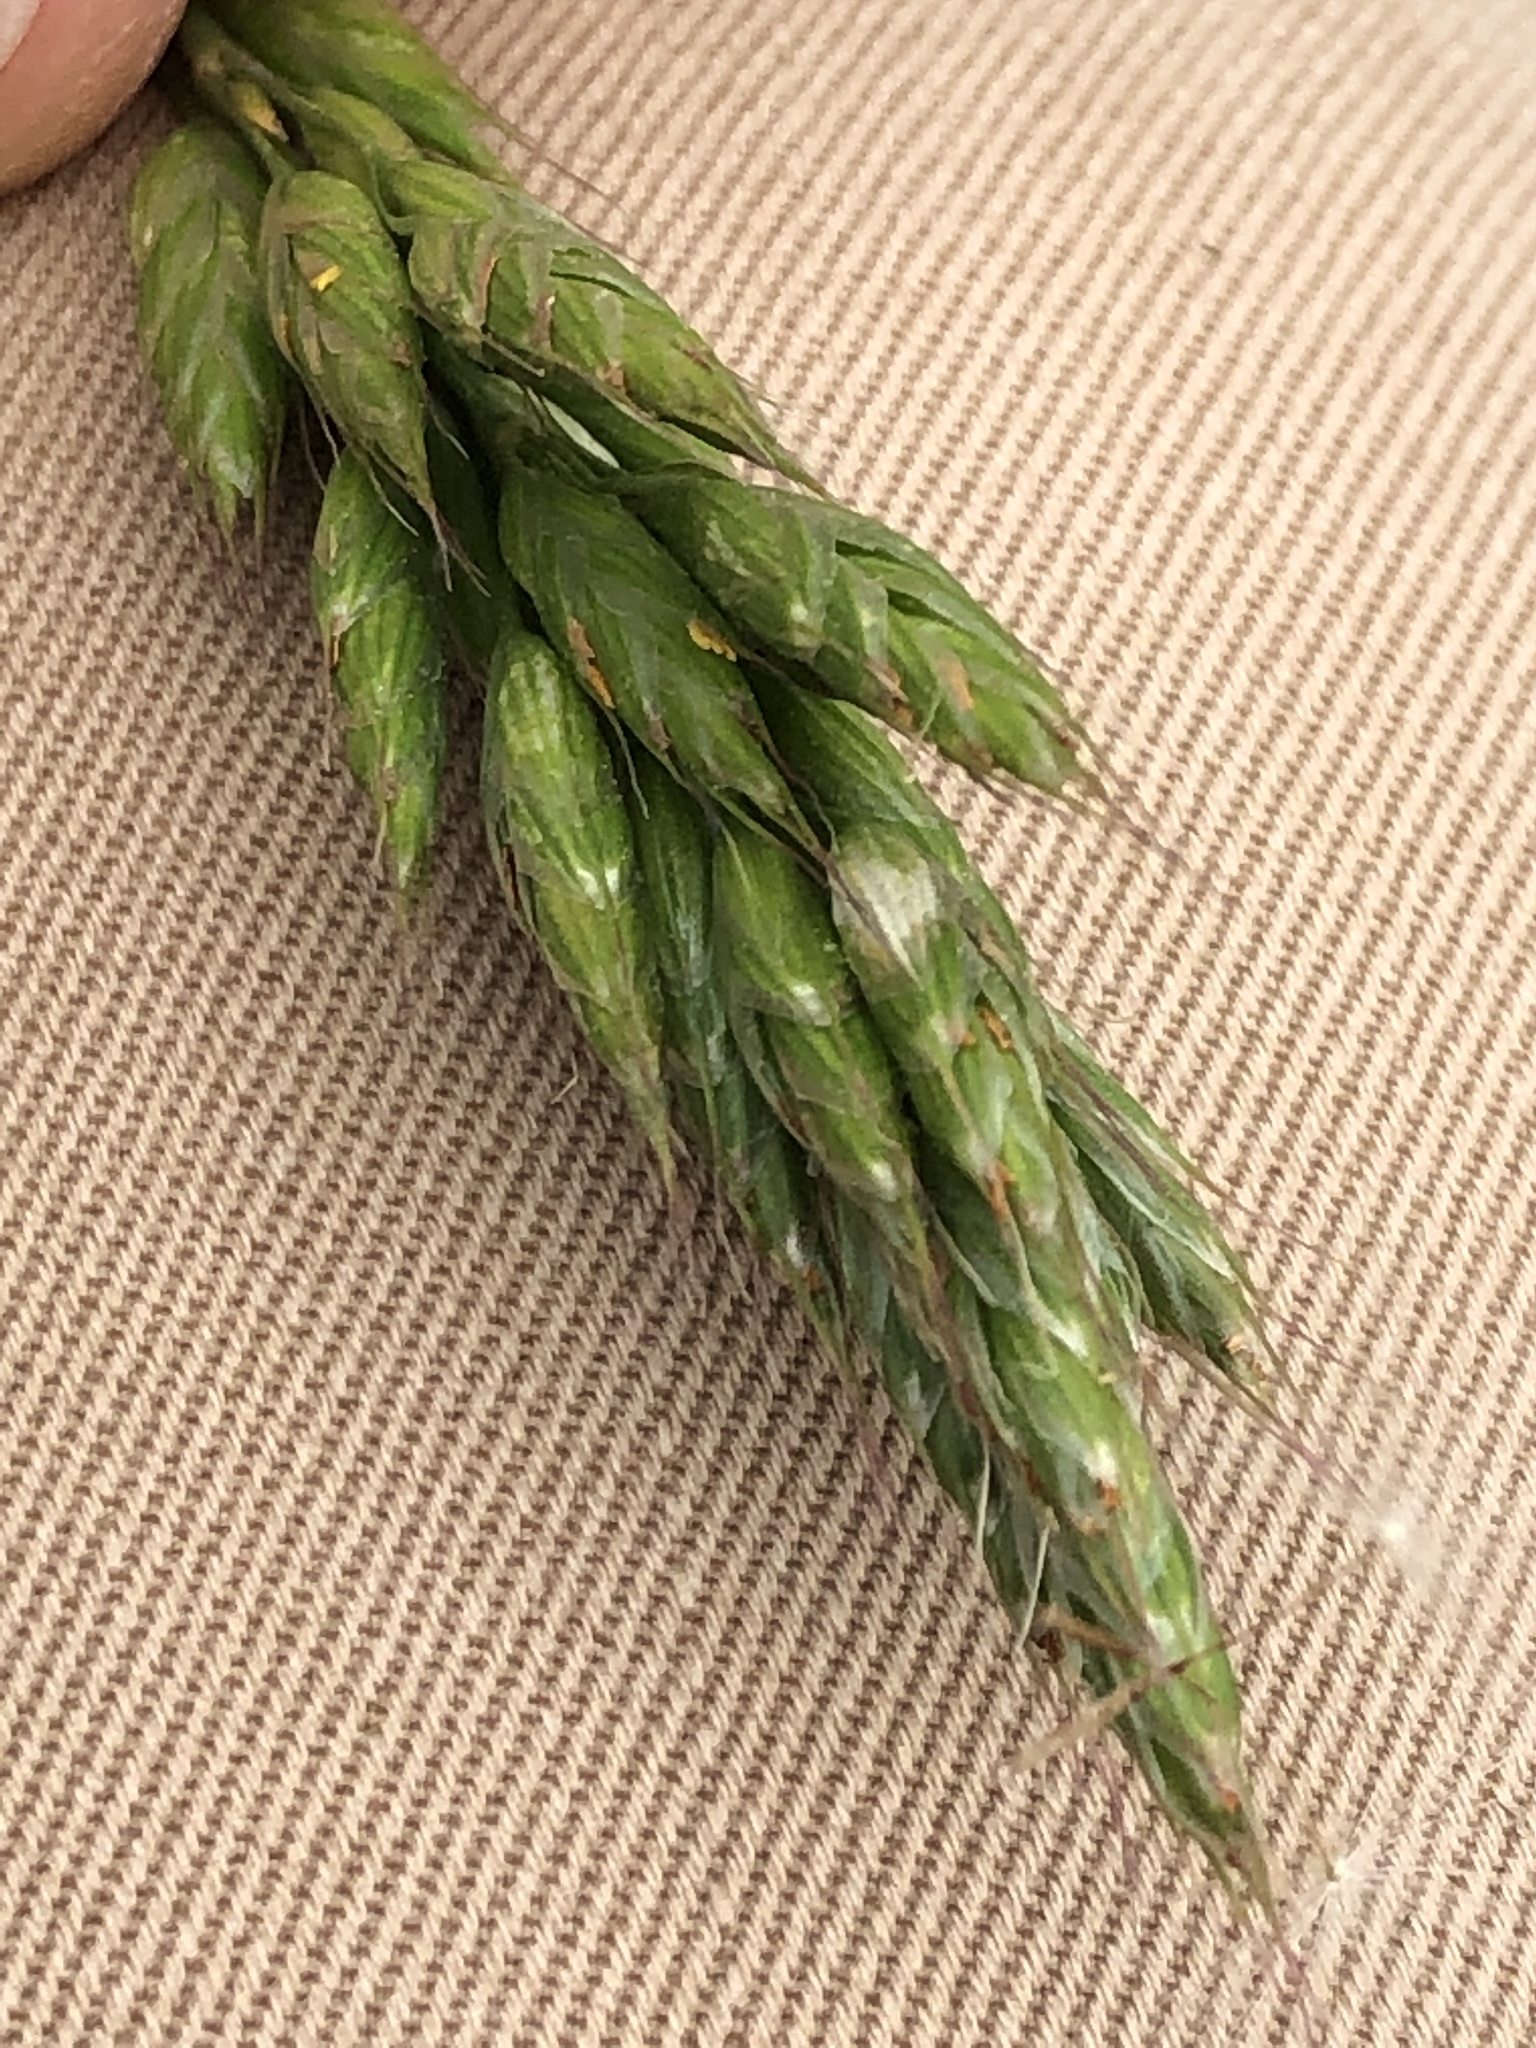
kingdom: Plantae
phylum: Tracheophyta
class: Liliopsida
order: Poales
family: Poaceae
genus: Bromus
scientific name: Bromus hordeaceus
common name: Soft brome
